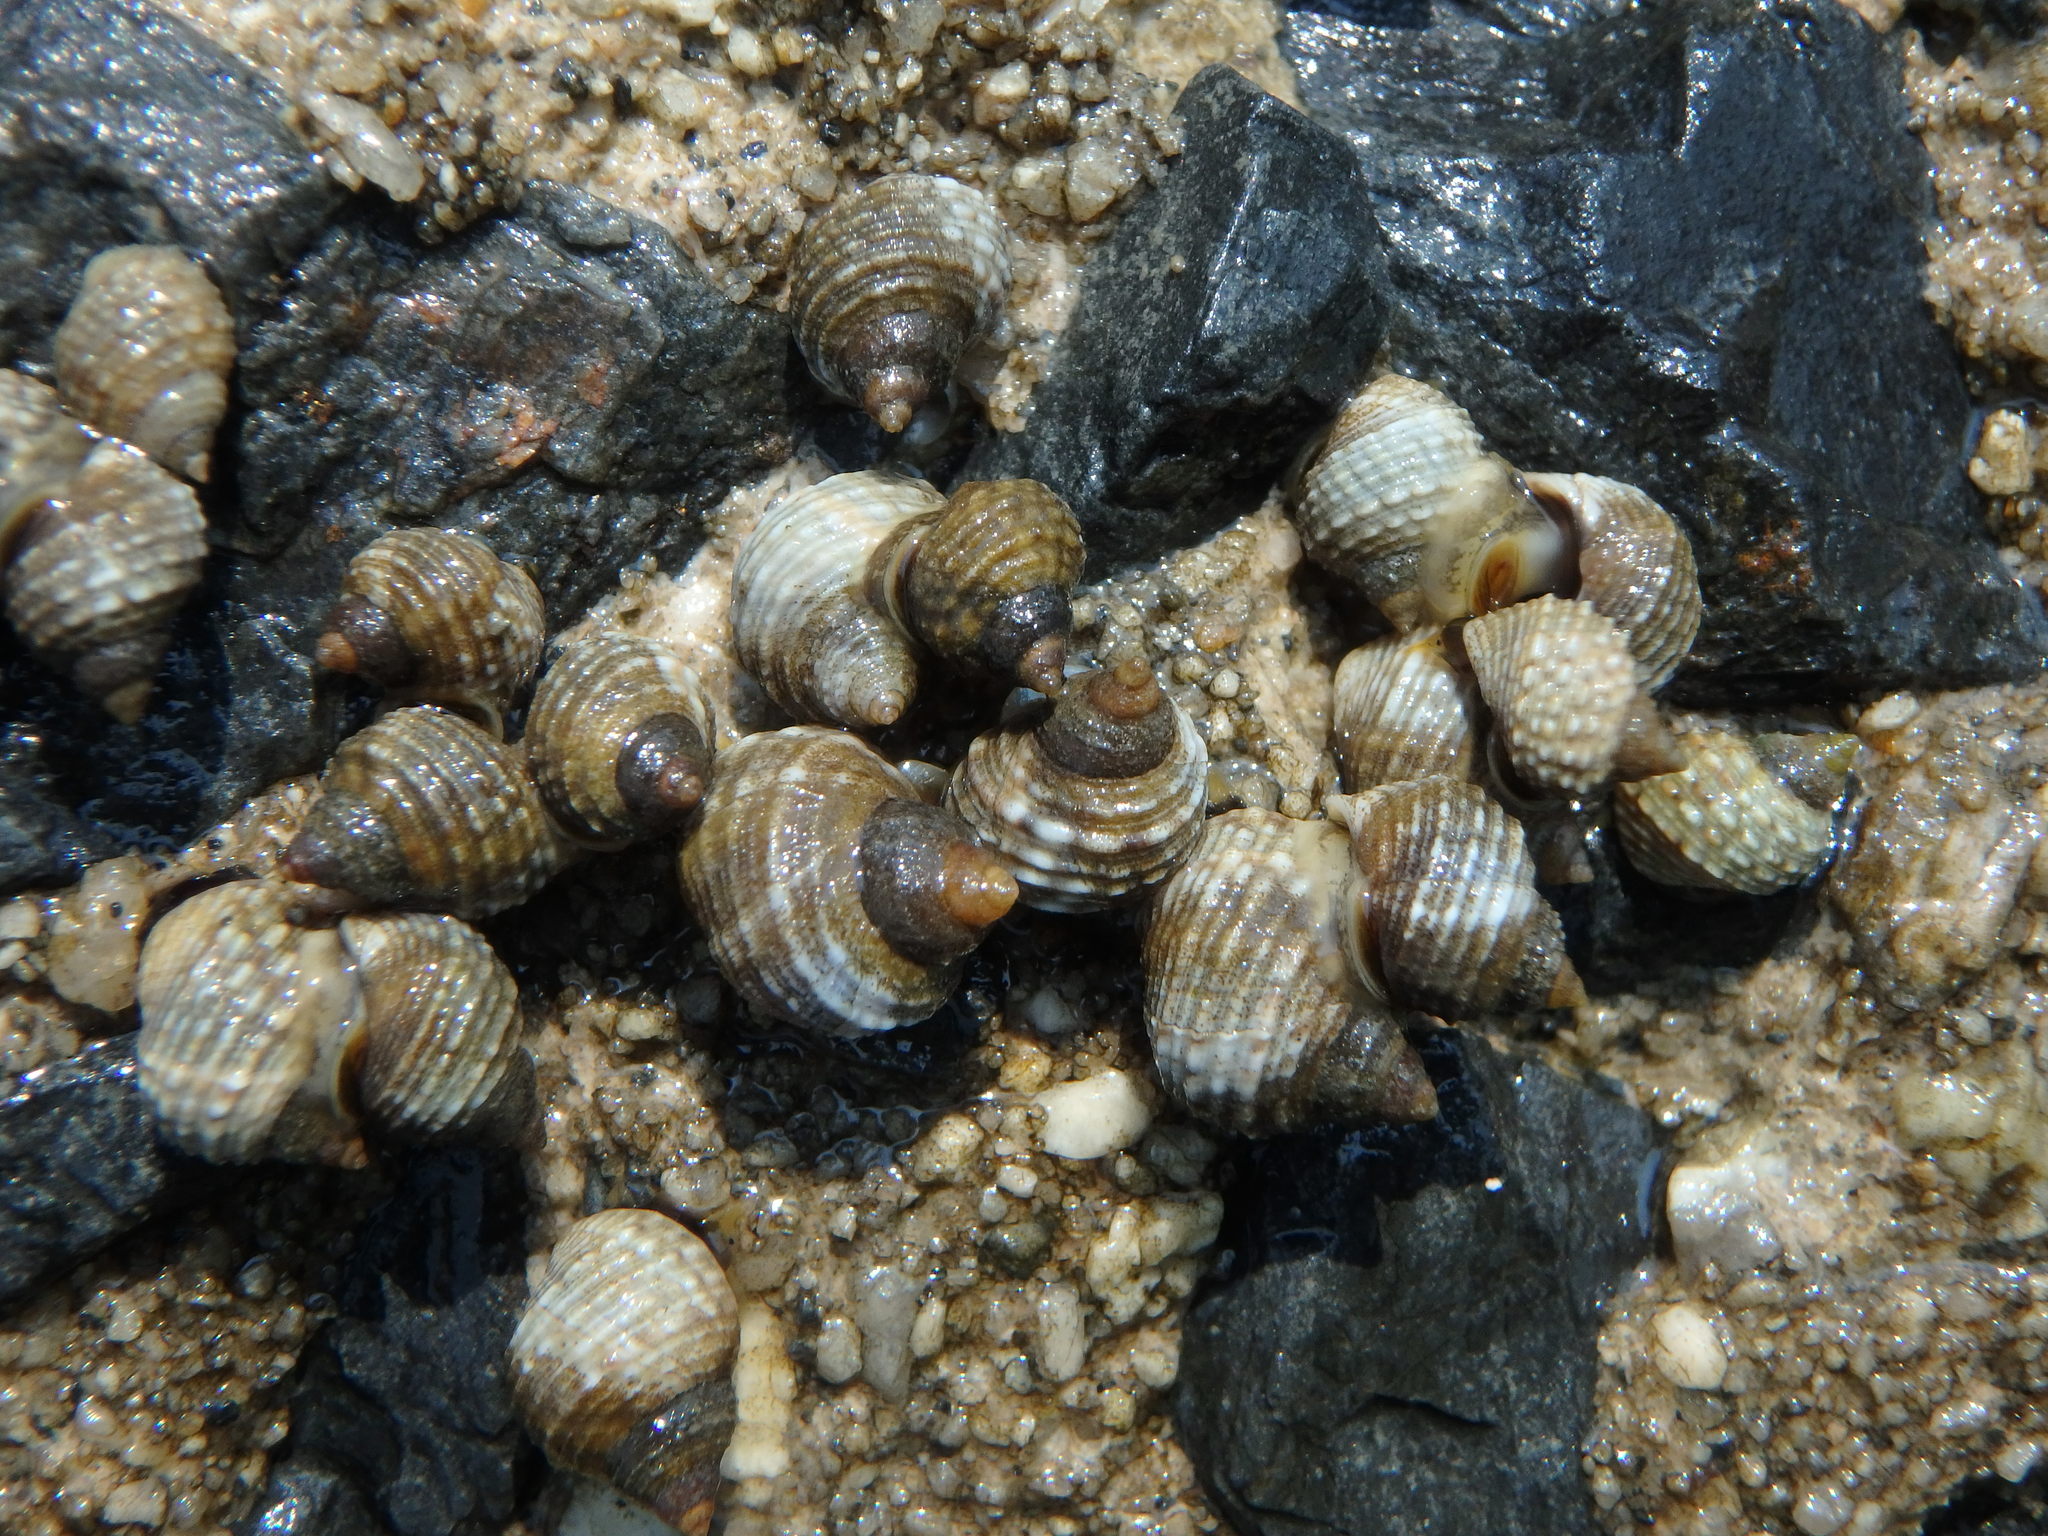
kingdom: Animalia
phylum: Mollusca
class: Gastropoda
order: Littorinimorpha
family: Littorinidae
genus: Echinolittorina
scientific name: Echinolittorina radiata
